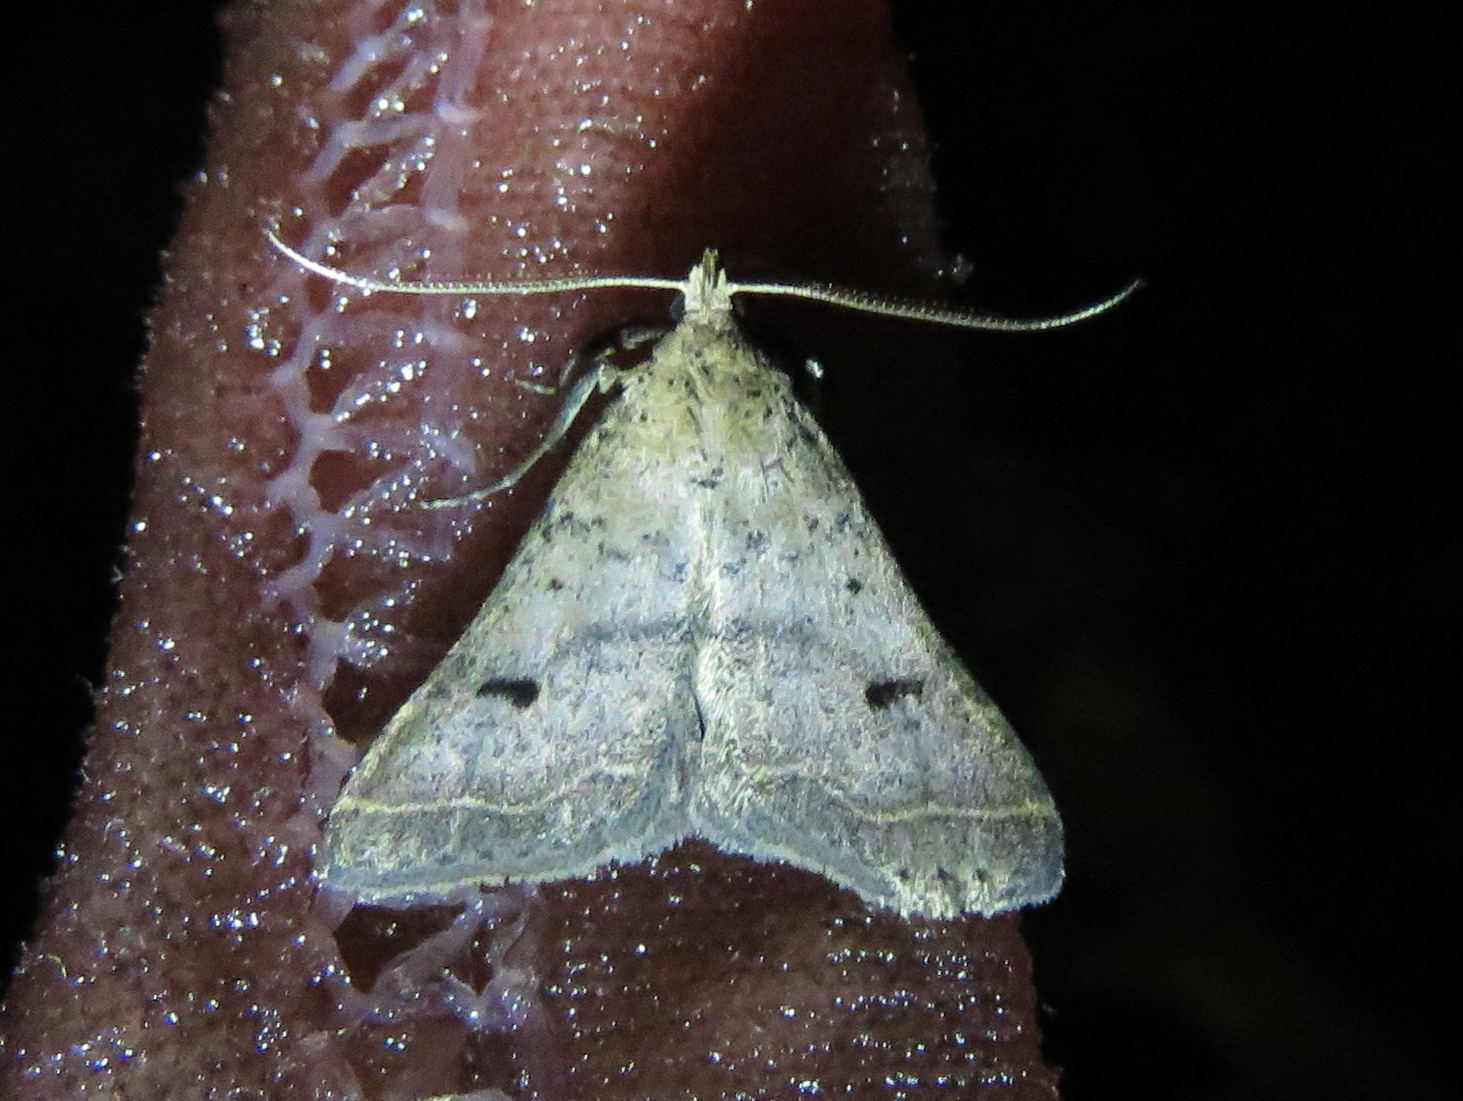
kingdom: Animalia
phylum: Arthropoda
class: Insecta
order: Lepidoptera
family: Erebidae
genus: Bleptina
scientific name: Bleptina caradrinalis
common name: Bent-winged owlet
